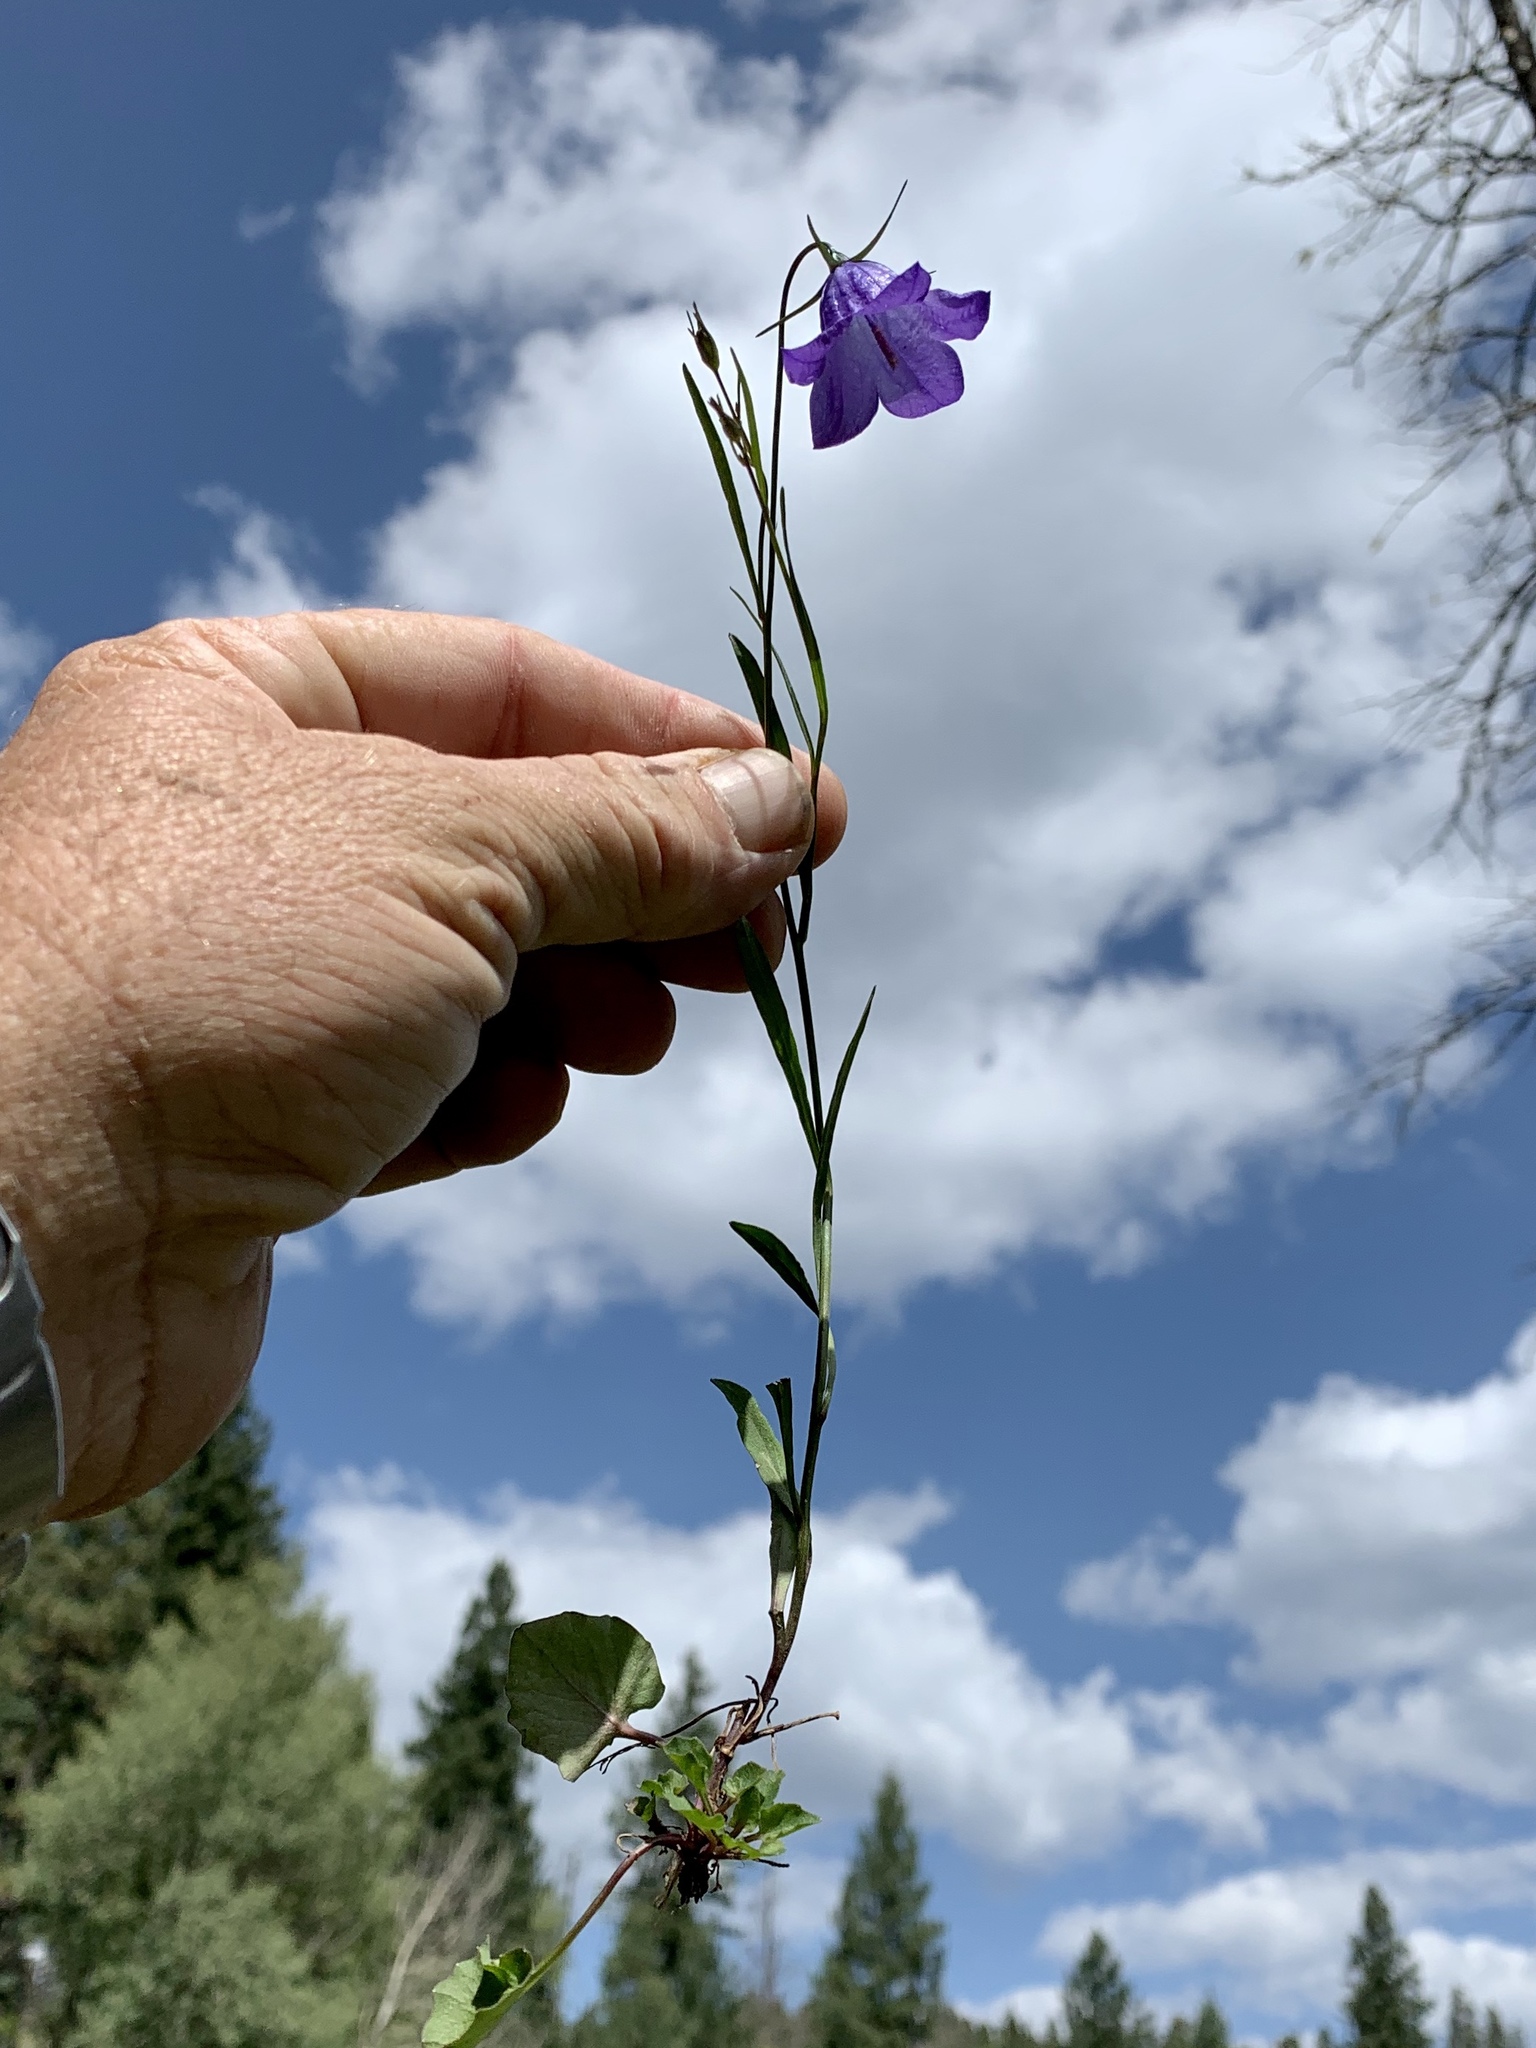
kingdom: Plantae
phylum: Tracheophyta
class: Magnoliopsida
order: Asterales
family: Campanulaceae
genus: Campanula
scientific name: Campanula petiolata
